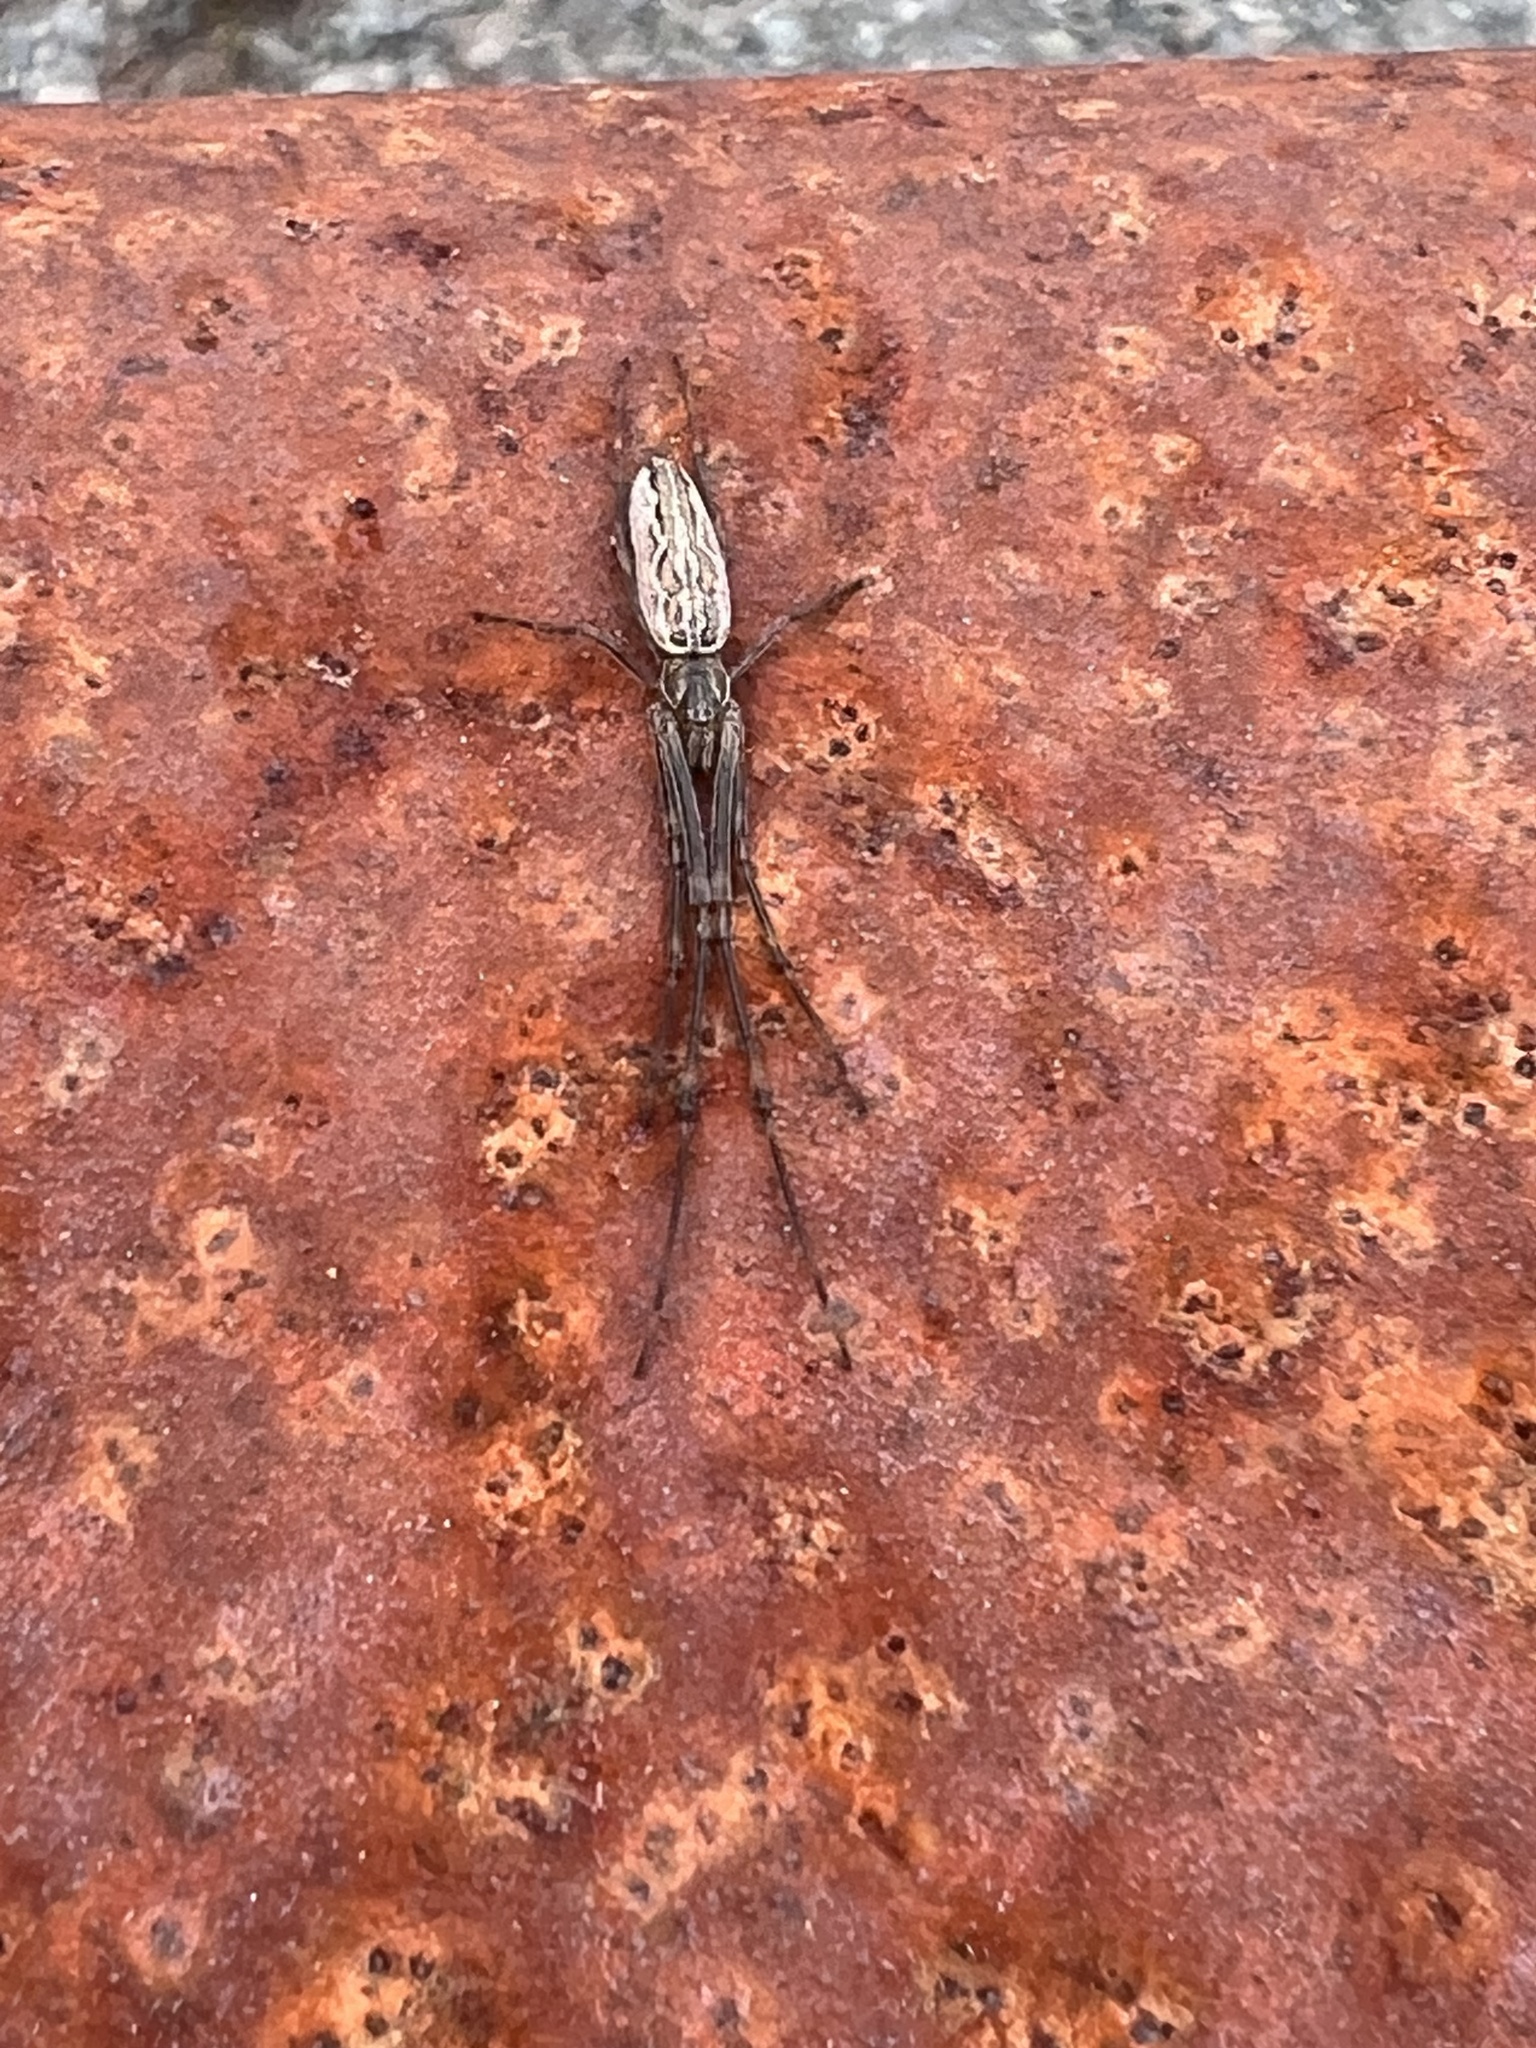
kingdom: Animalia
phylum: Arthropoda
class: Arachnida
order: Araneae
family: Tetragnathidae
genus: Tetragnatha
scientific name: Tetragnatha versicolor
